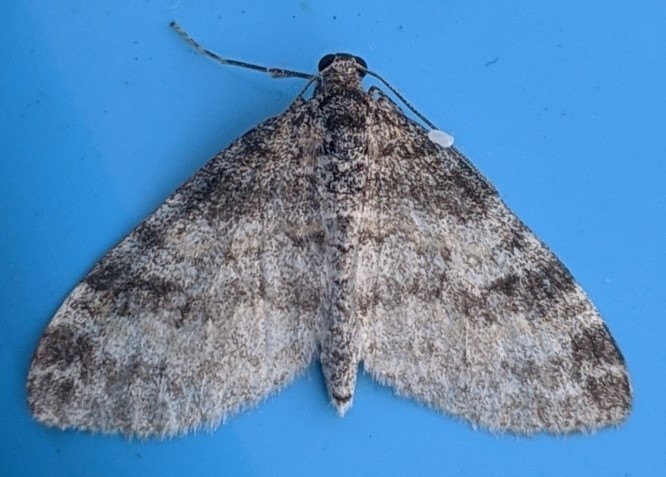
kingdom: Animalia
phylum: Arthropoda
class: Insecta
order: Lepidoptera
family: Geometridae
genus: Lobophora
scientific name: Lobophora nivigerata
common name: Powdered bigwing
